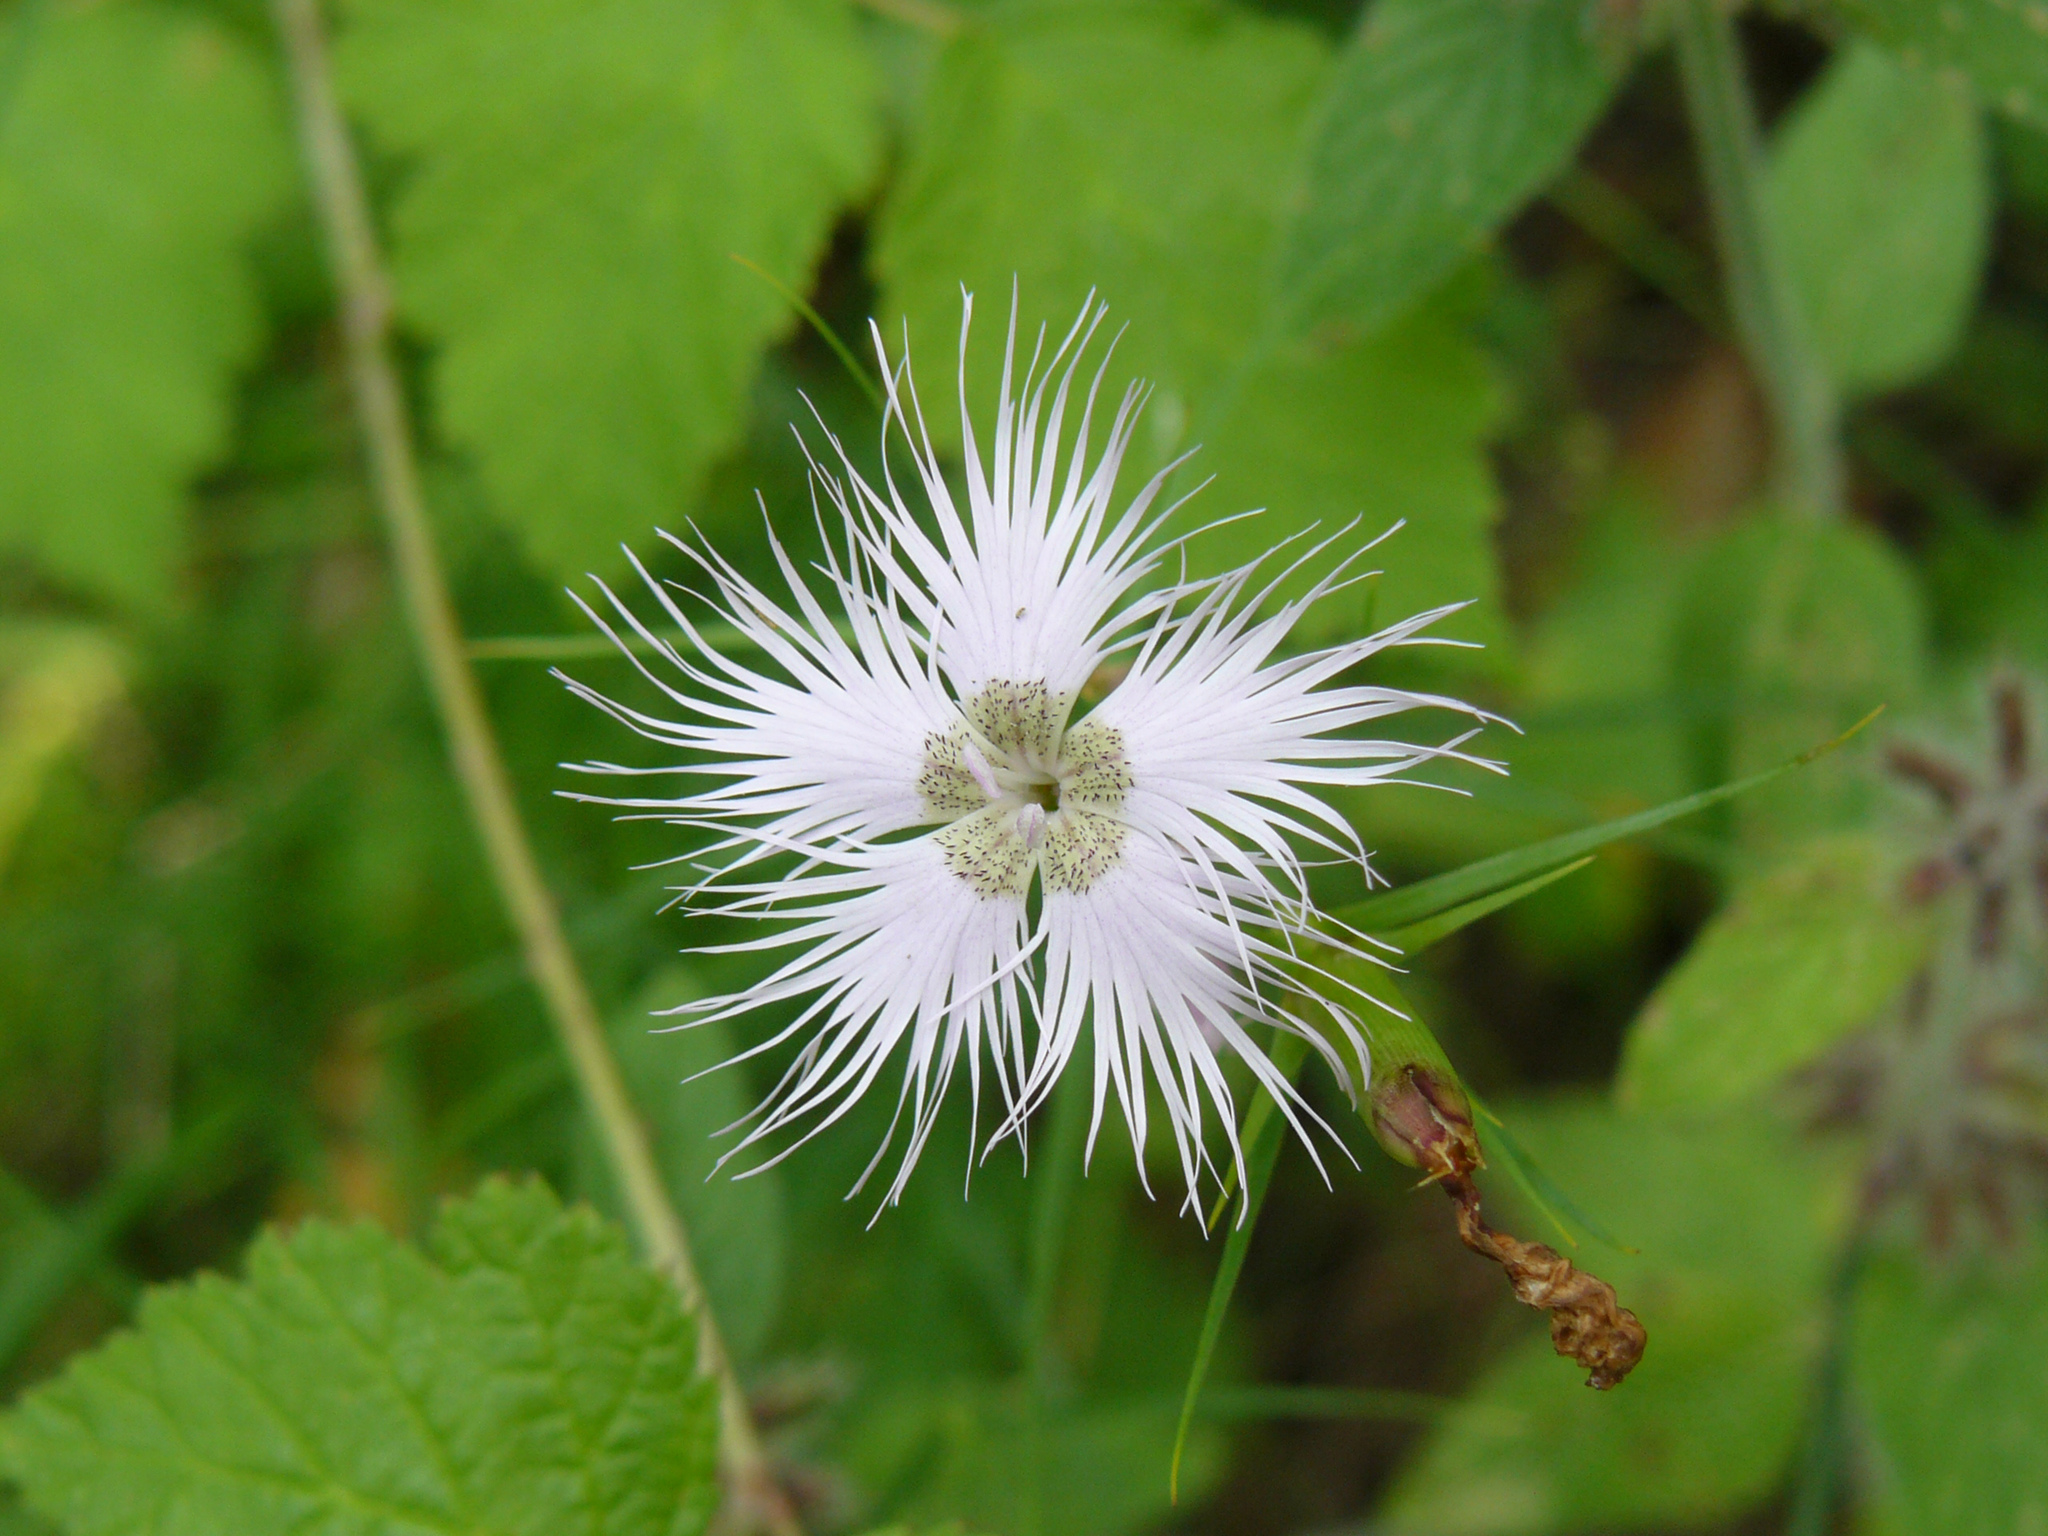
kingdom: Plantae
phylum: Tracheophyta
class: Magnoliopsida
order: Caryophyllales
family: Caryophyllaceae
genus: Dianthus
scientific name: Dianthus hyssopifolius
